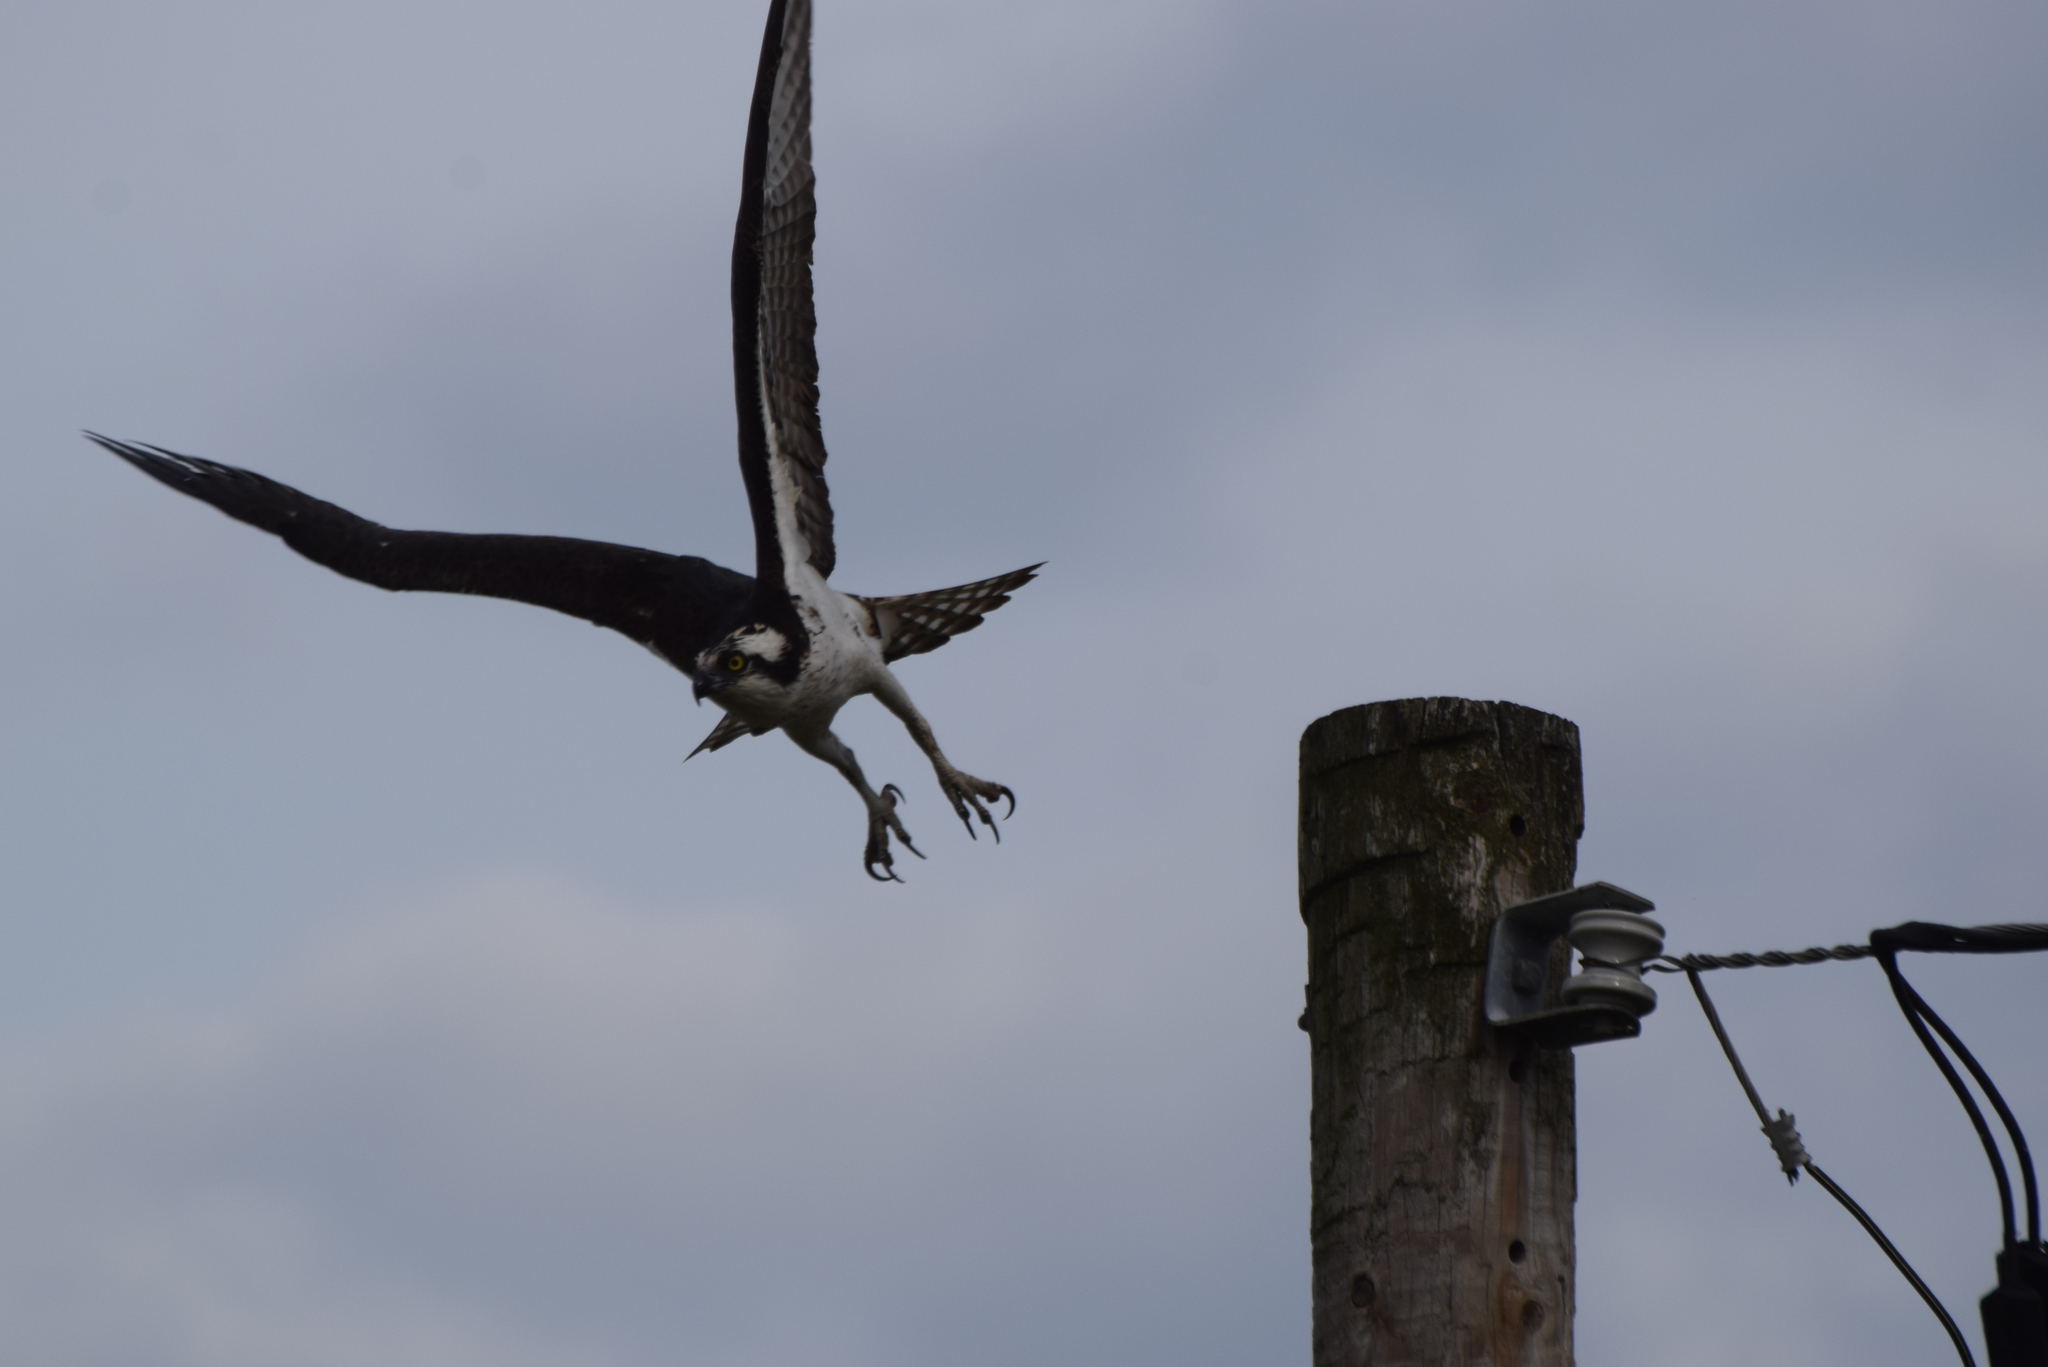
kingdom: Animalia
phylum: Chordata
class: Aves
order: Accipitriformes
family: Pandionidae
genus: Pandion
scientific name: Pandion haliaetus
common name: Osprey
